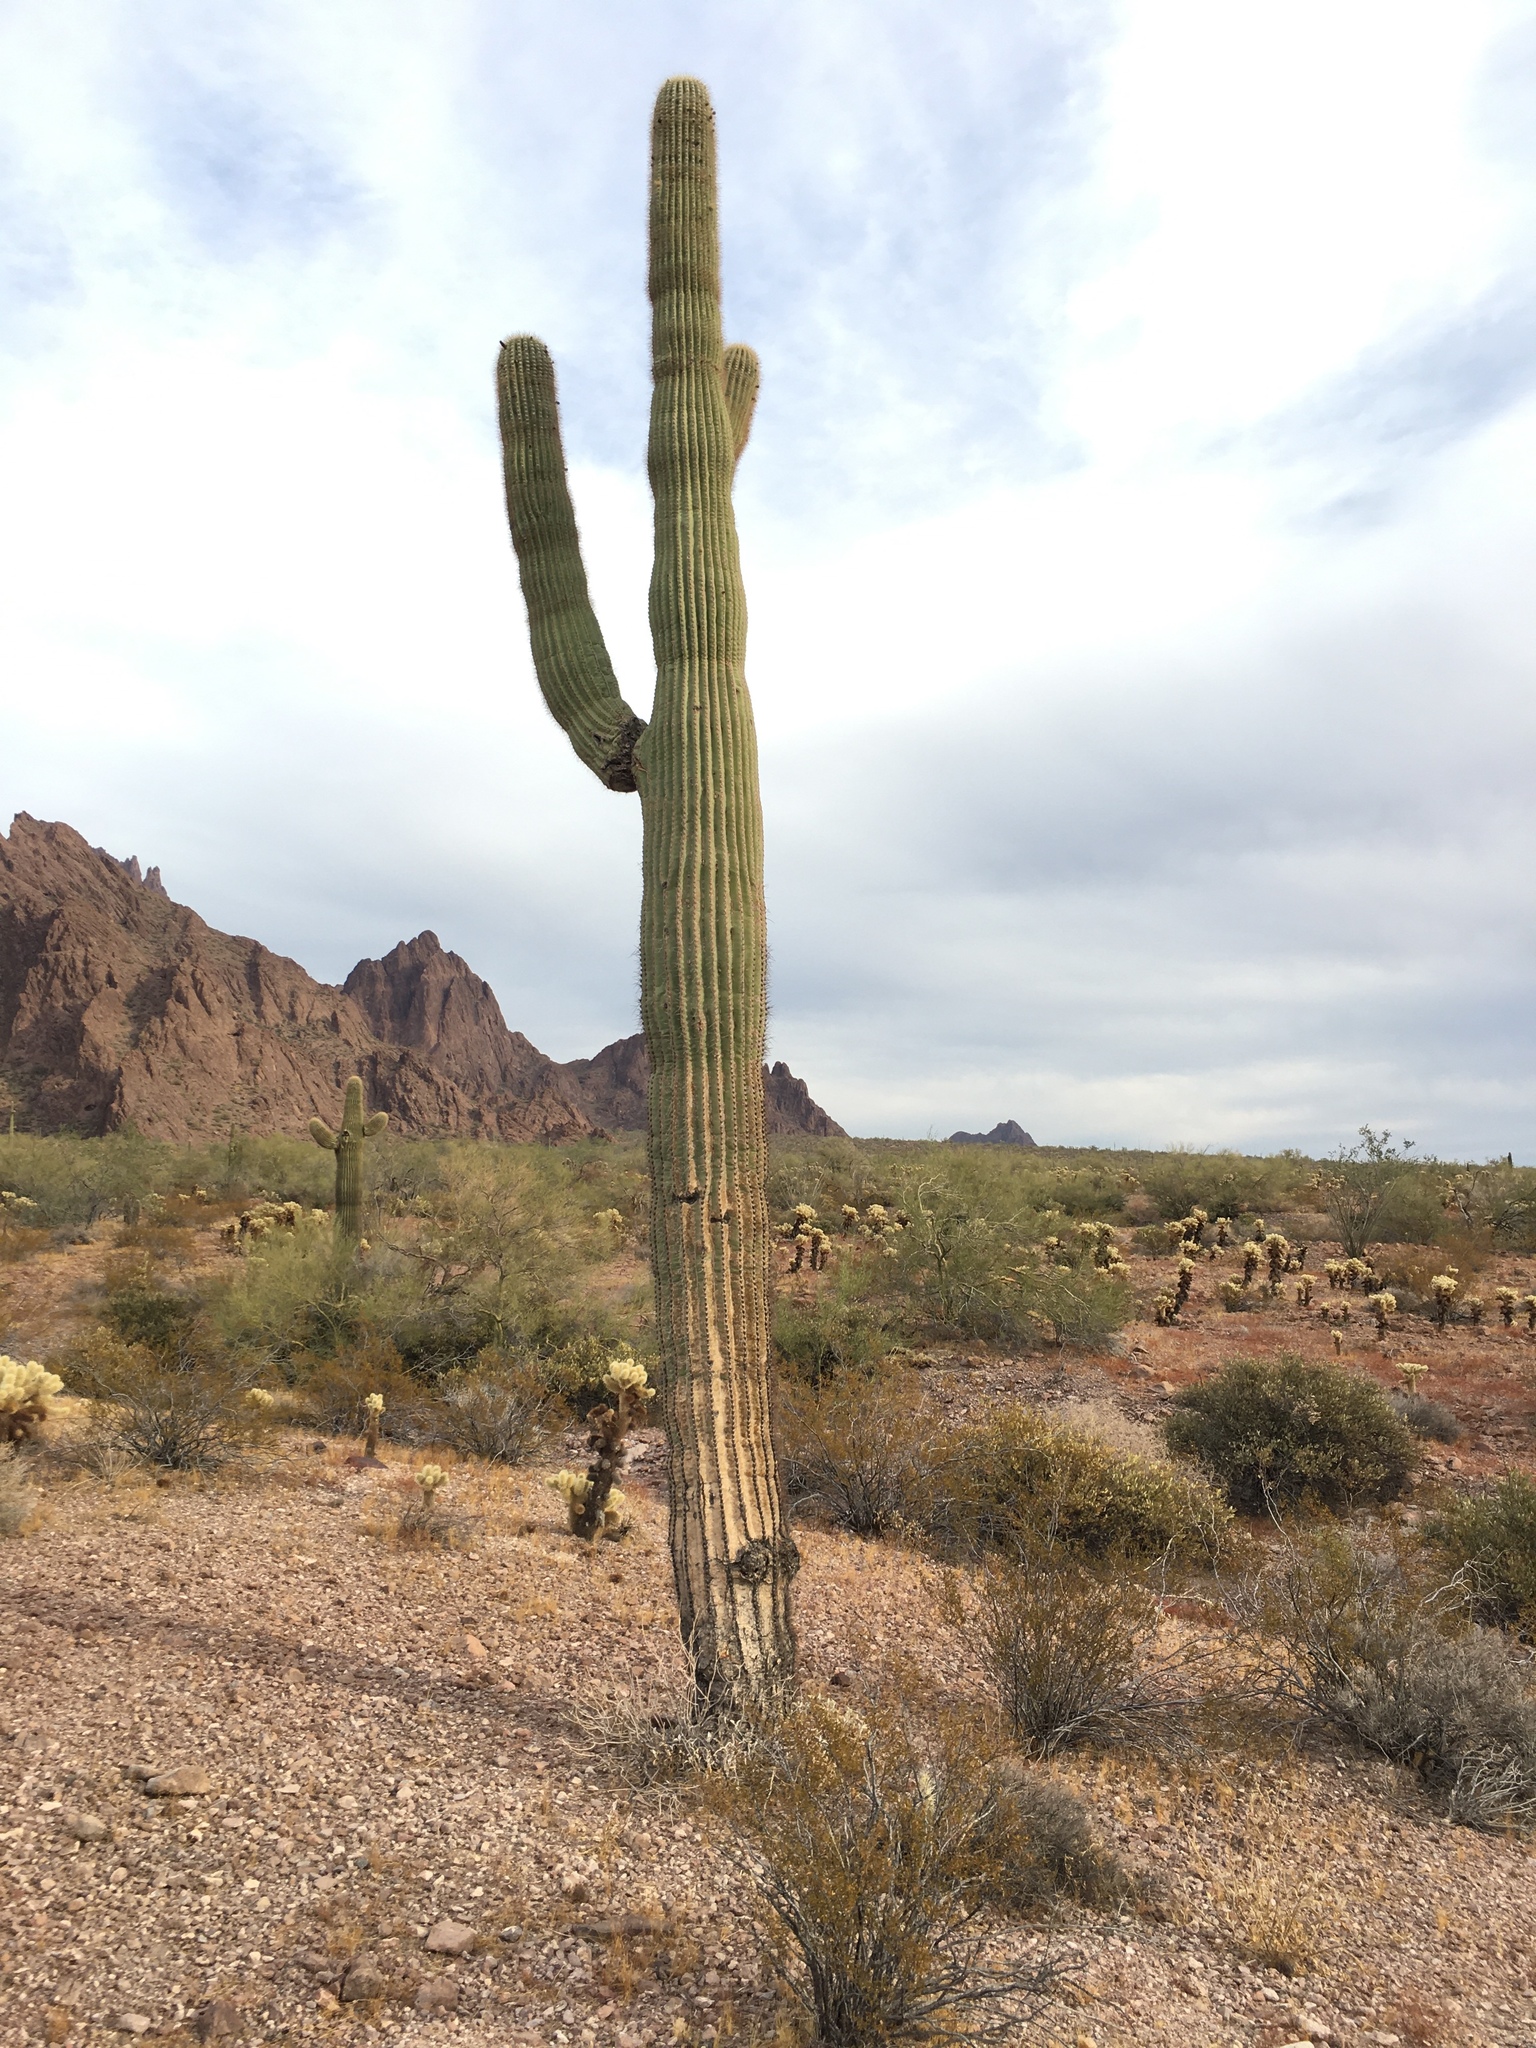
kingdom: Plantae
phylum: Tracheophyta
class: Magnoliopsida
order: Caryophyllales
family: Cactaceae
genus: Carnegiea
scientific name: Carnegiea gigantea
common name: Saguaro
